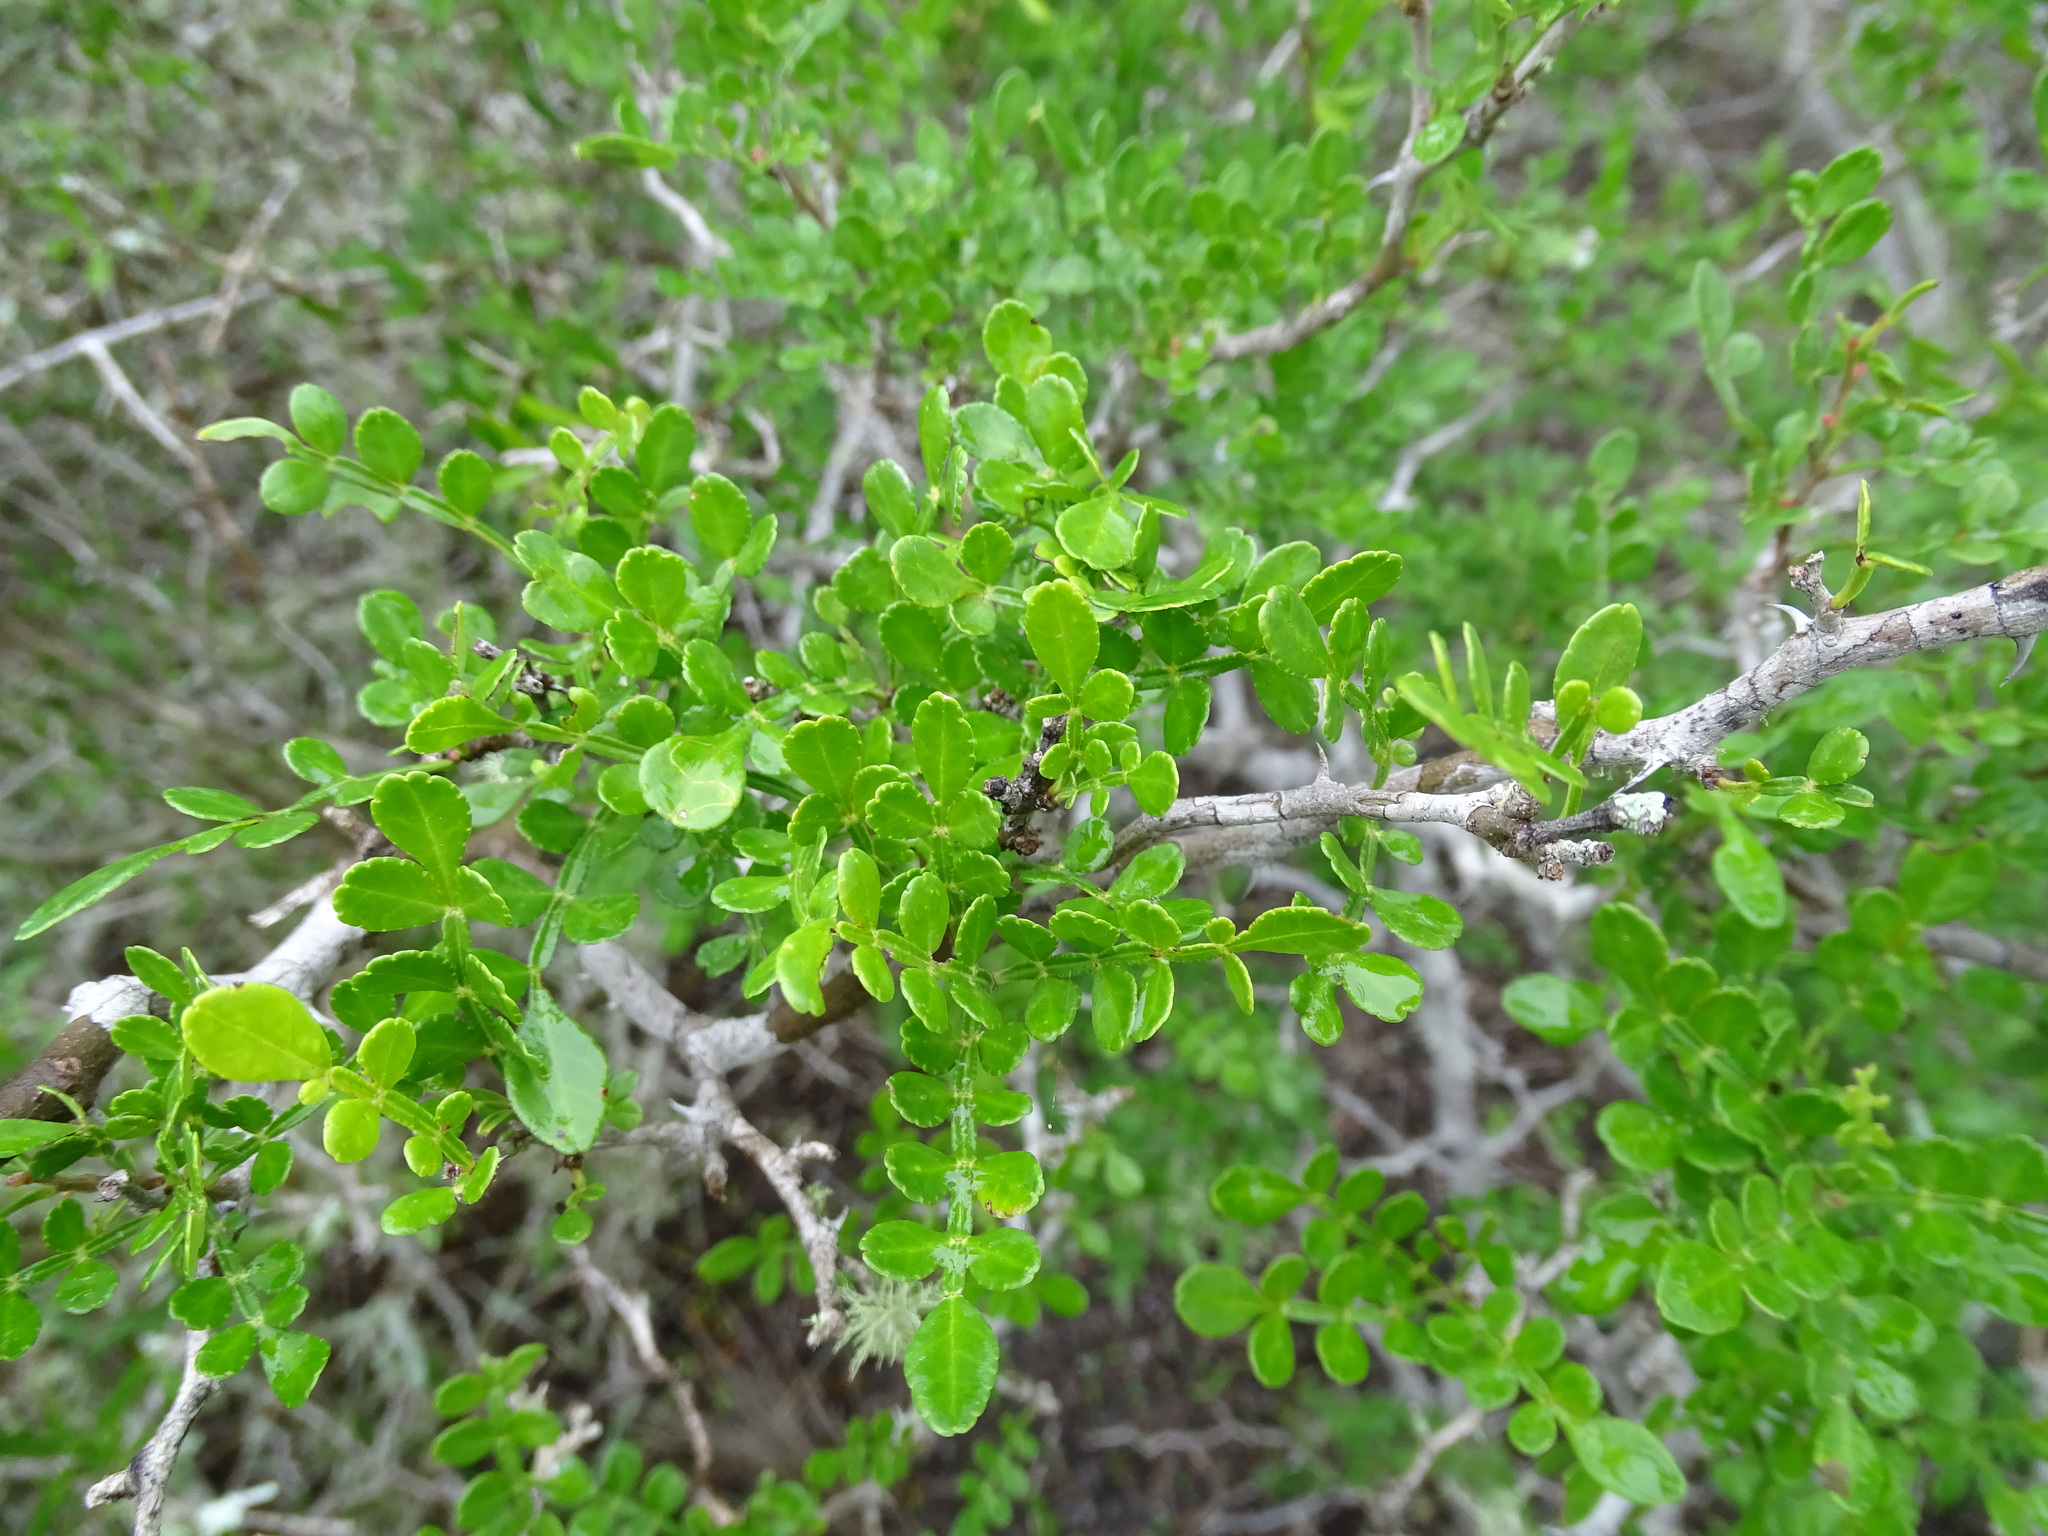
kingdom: Plantae
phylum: Tracheophyta
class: Magnoliopsida
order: Sapindales
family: Rutaceae
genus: Zanthoxylum
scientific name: Zanthoxylum fagara
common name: Lime prickly-ash
